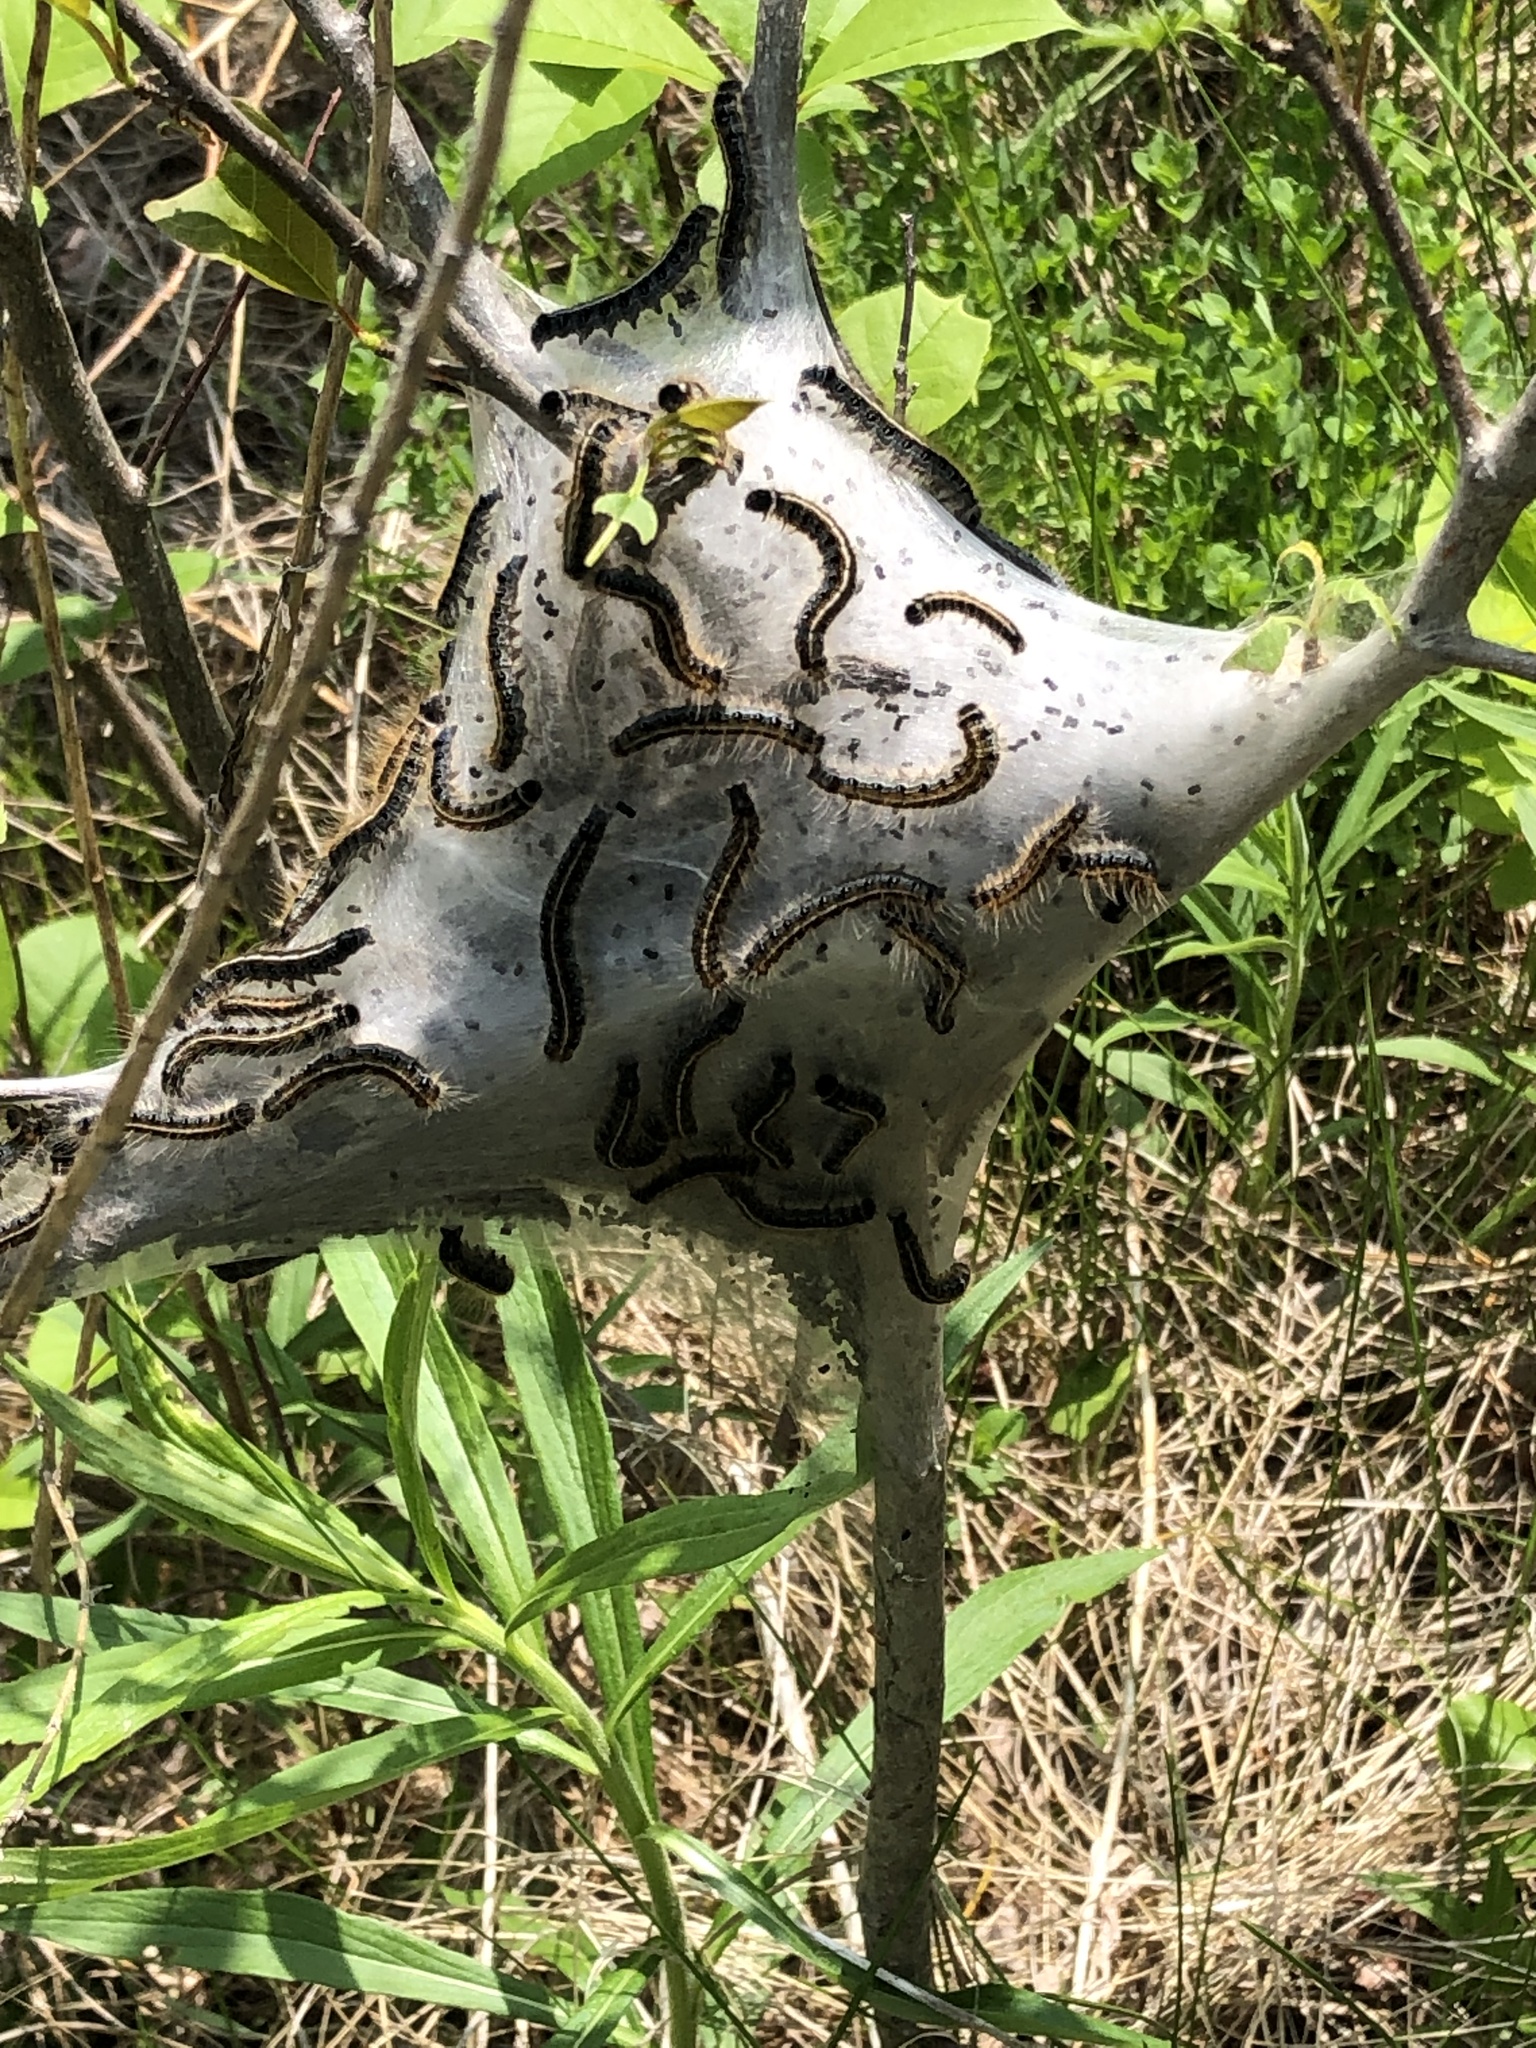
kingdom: Animalia
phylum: Arthropoda
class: Insecta
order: Lepidoptera
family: Lasiocampidae
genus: Malacosoma
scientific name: Malacosoma americana
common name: Eastern tent caterpillar moth
